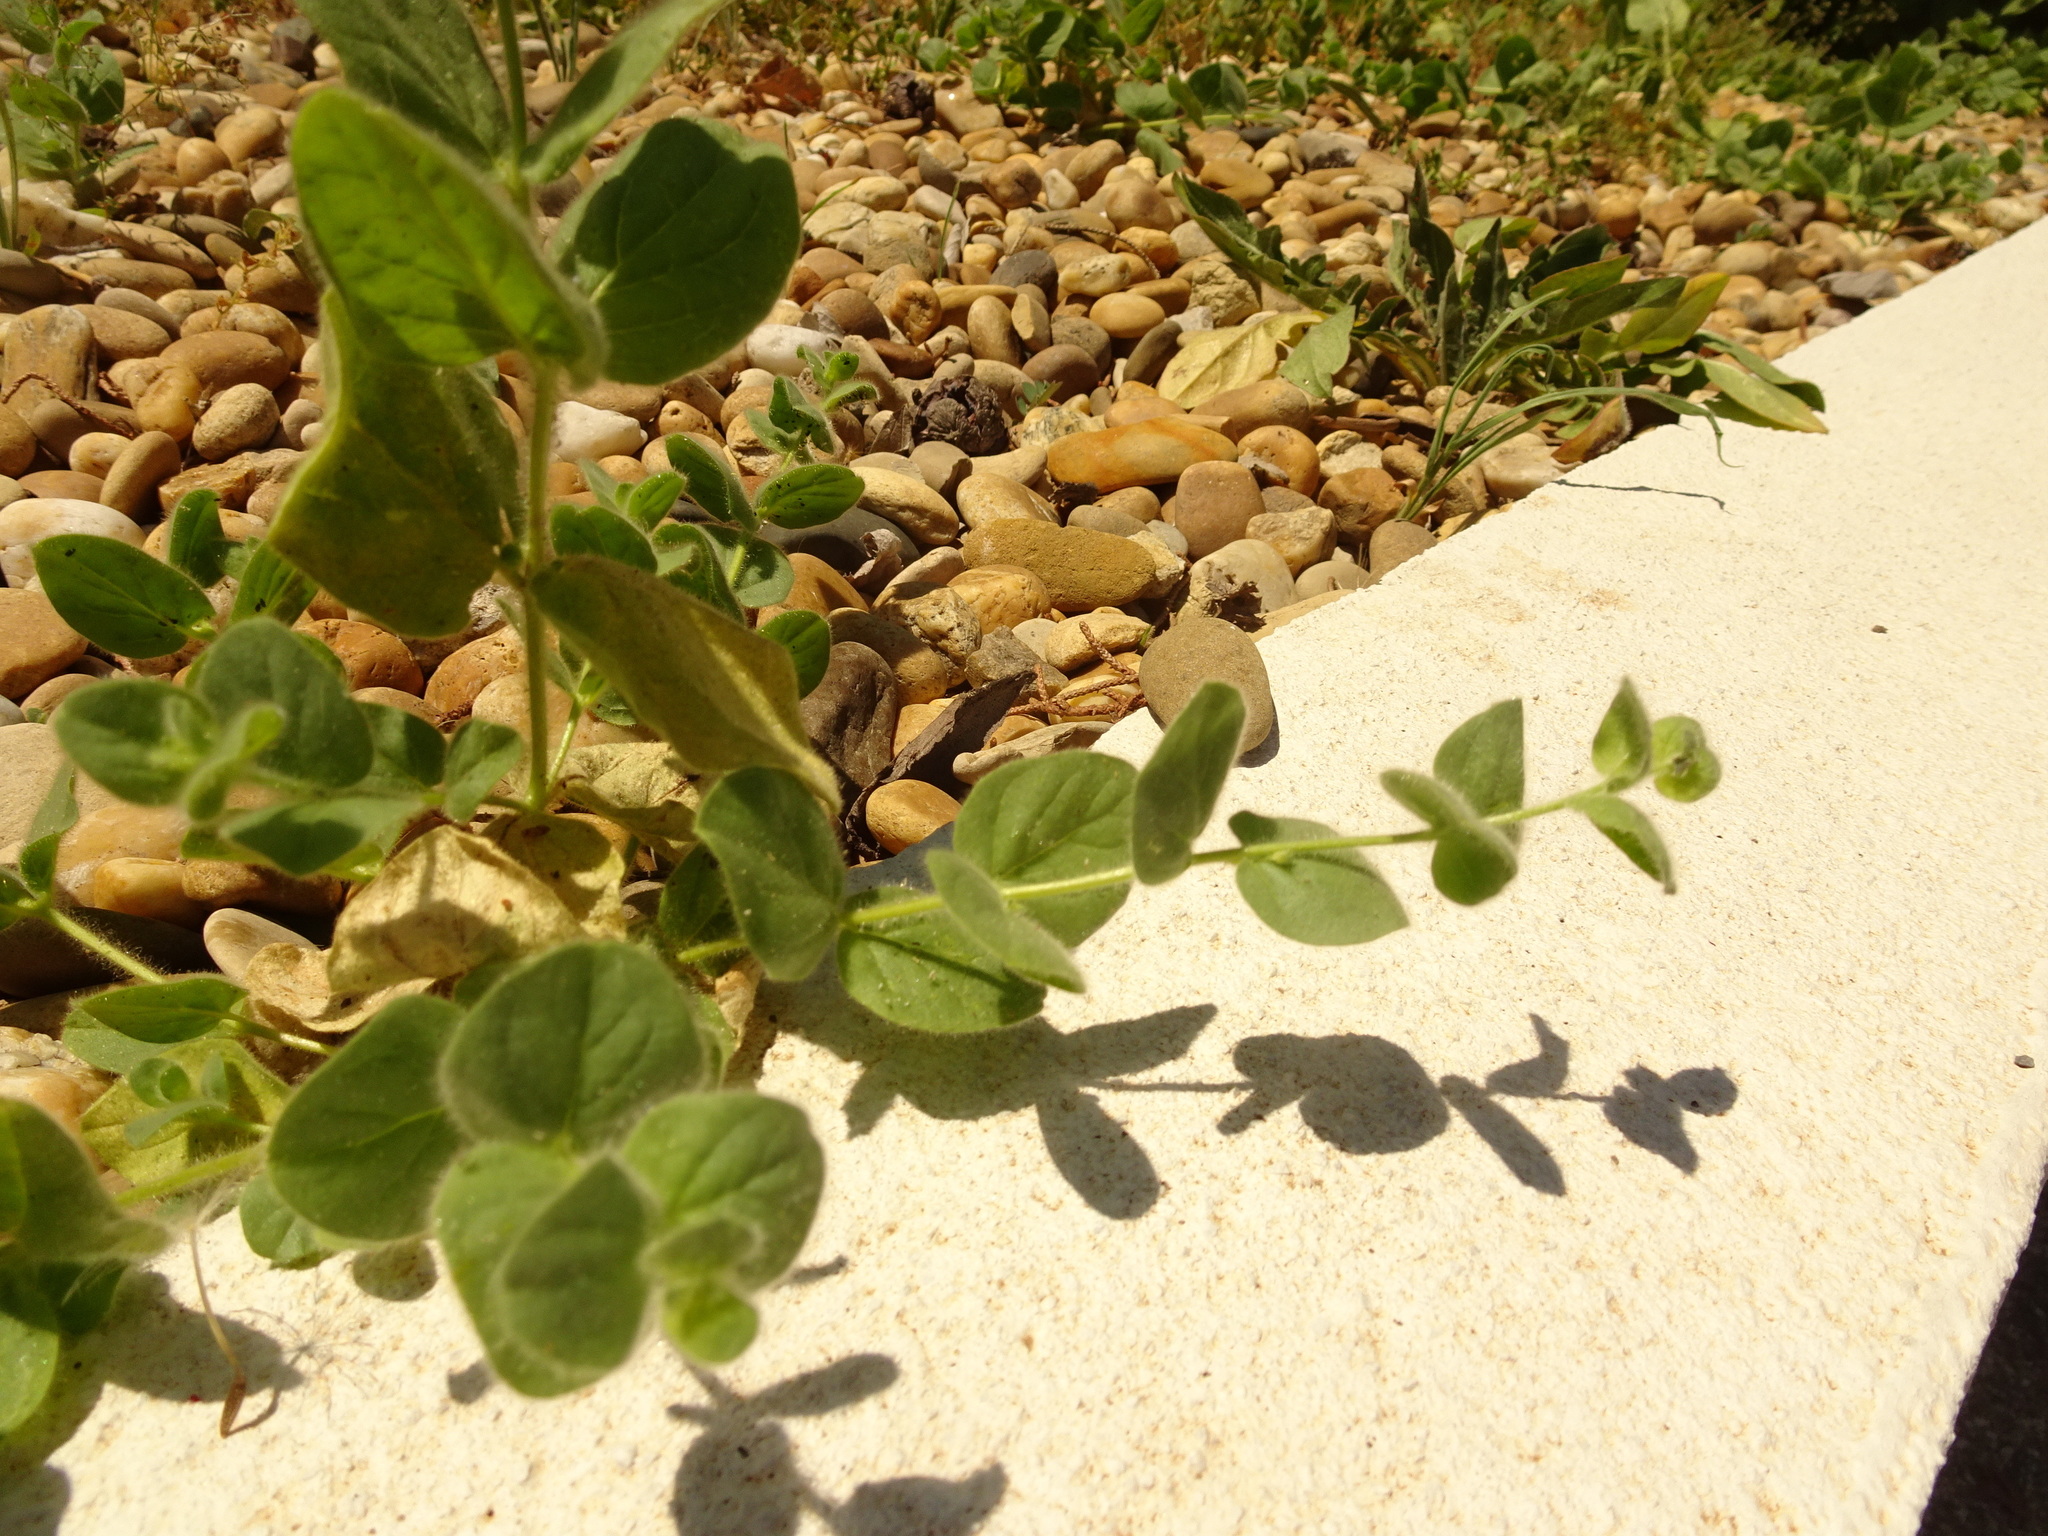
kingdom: Plantae
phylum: Tracheophyta
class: Magnoliopsida
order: Lamiales
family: Plantaginaceae
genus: Kickxia
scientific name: Kickxia spuria
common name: Round-leaved fluellen
